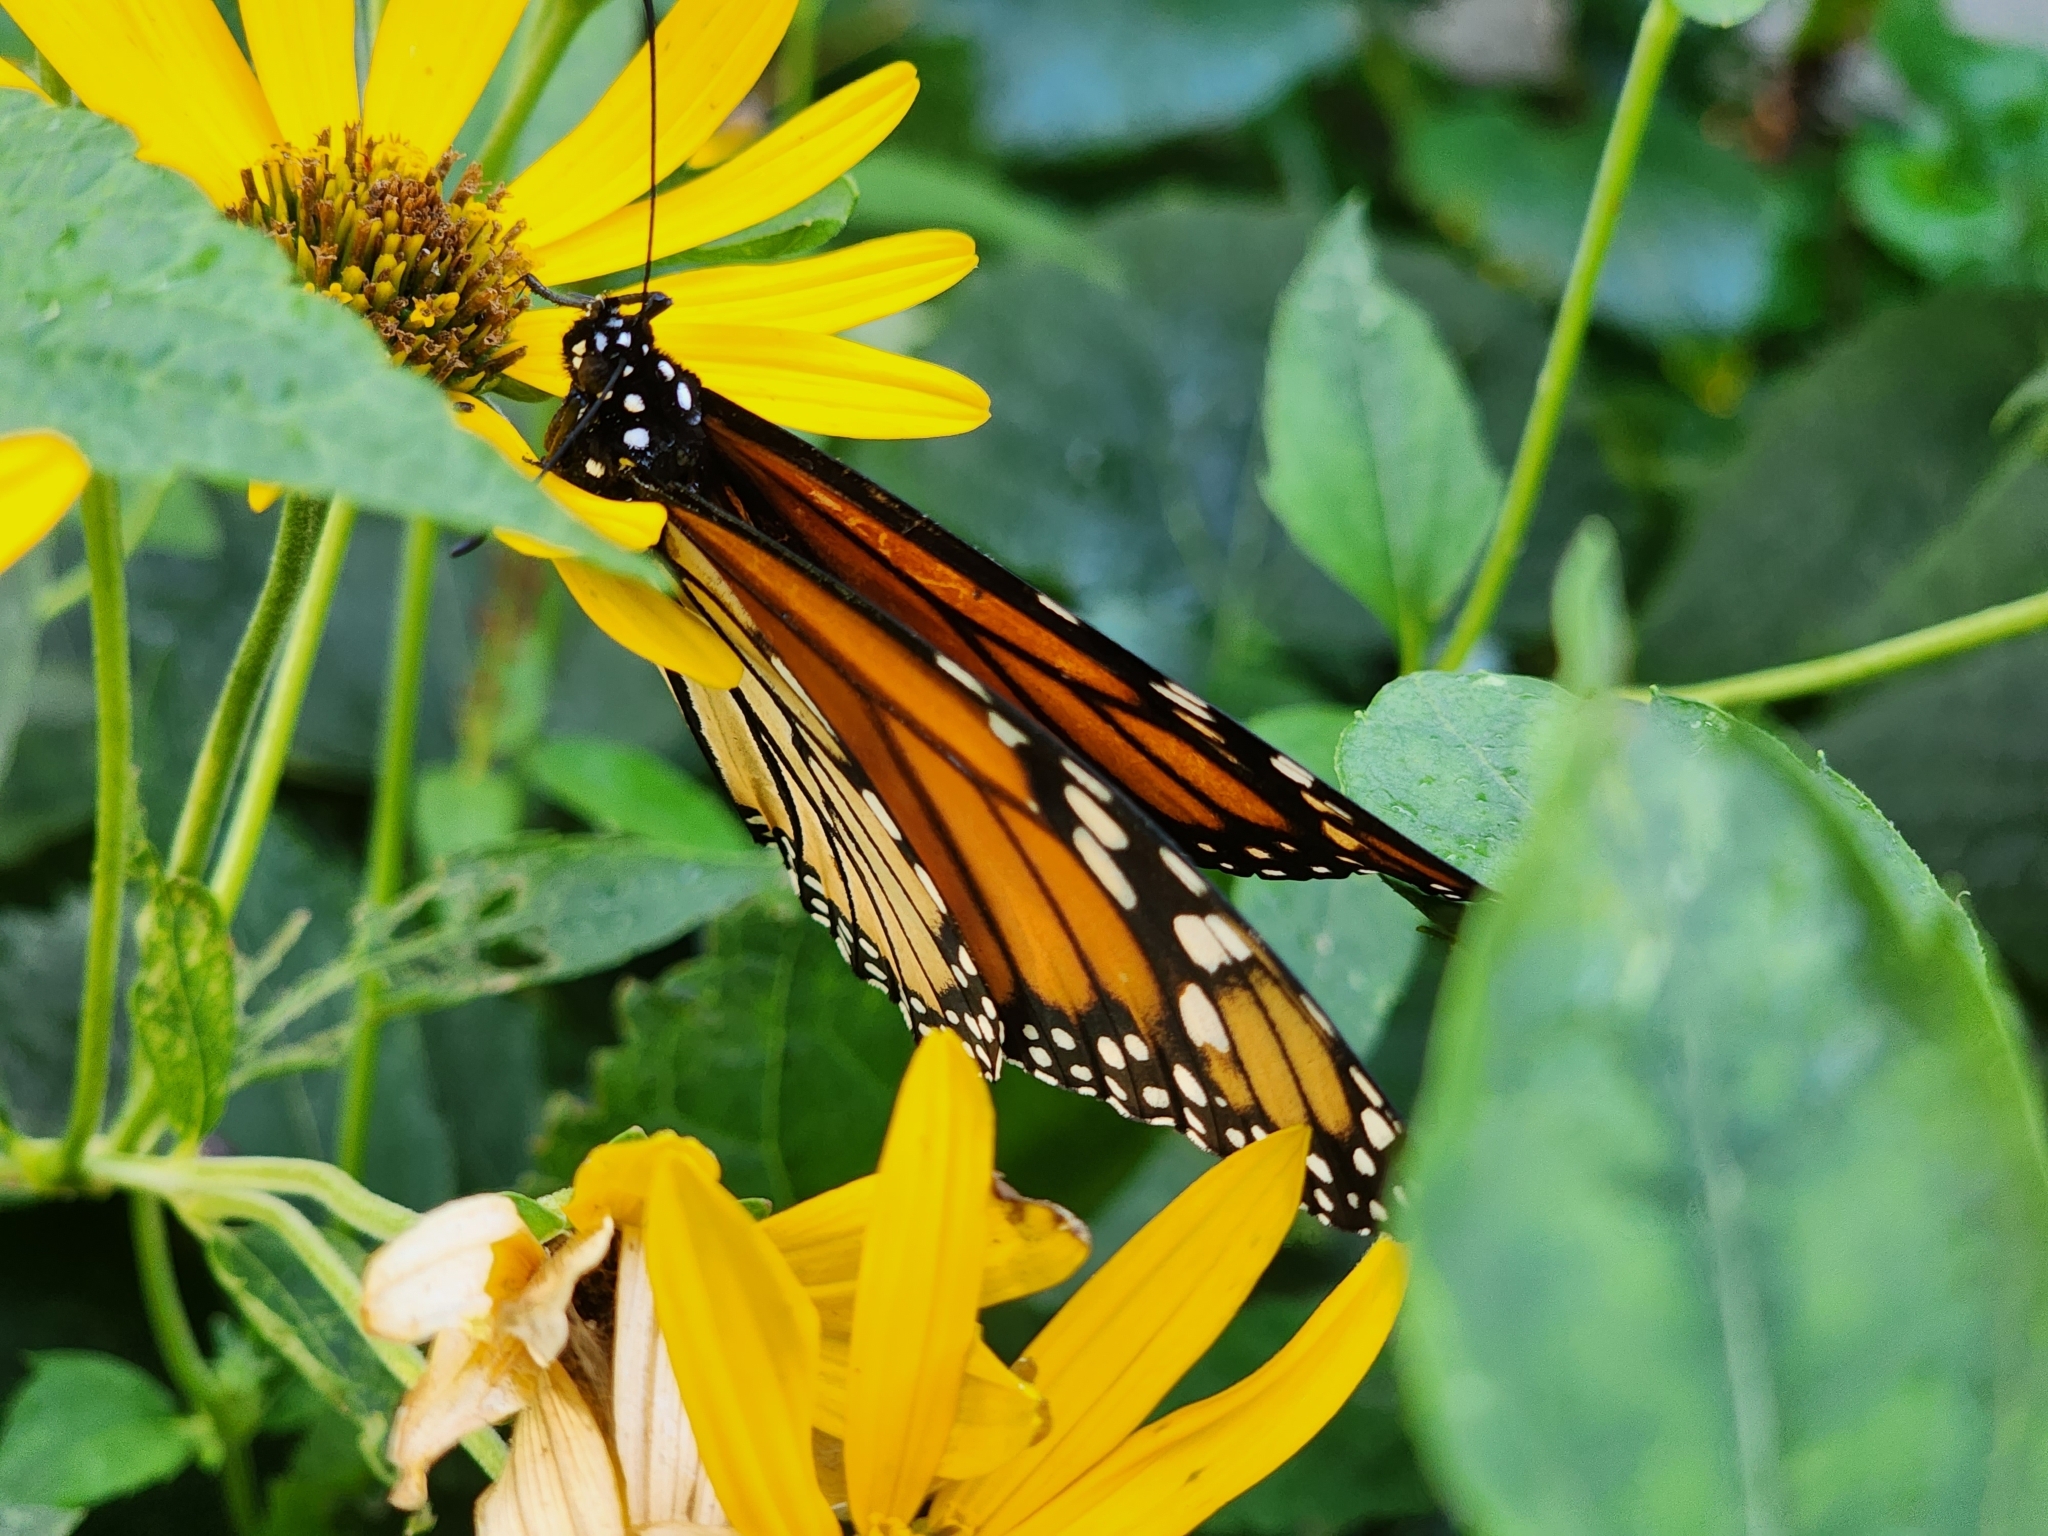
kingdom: Animalia
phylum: Arthropoda
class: Insecta
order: Lepidoptera
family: Nymphalidae
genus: Danaus
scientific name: Danaus plexippus
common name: Monarch
